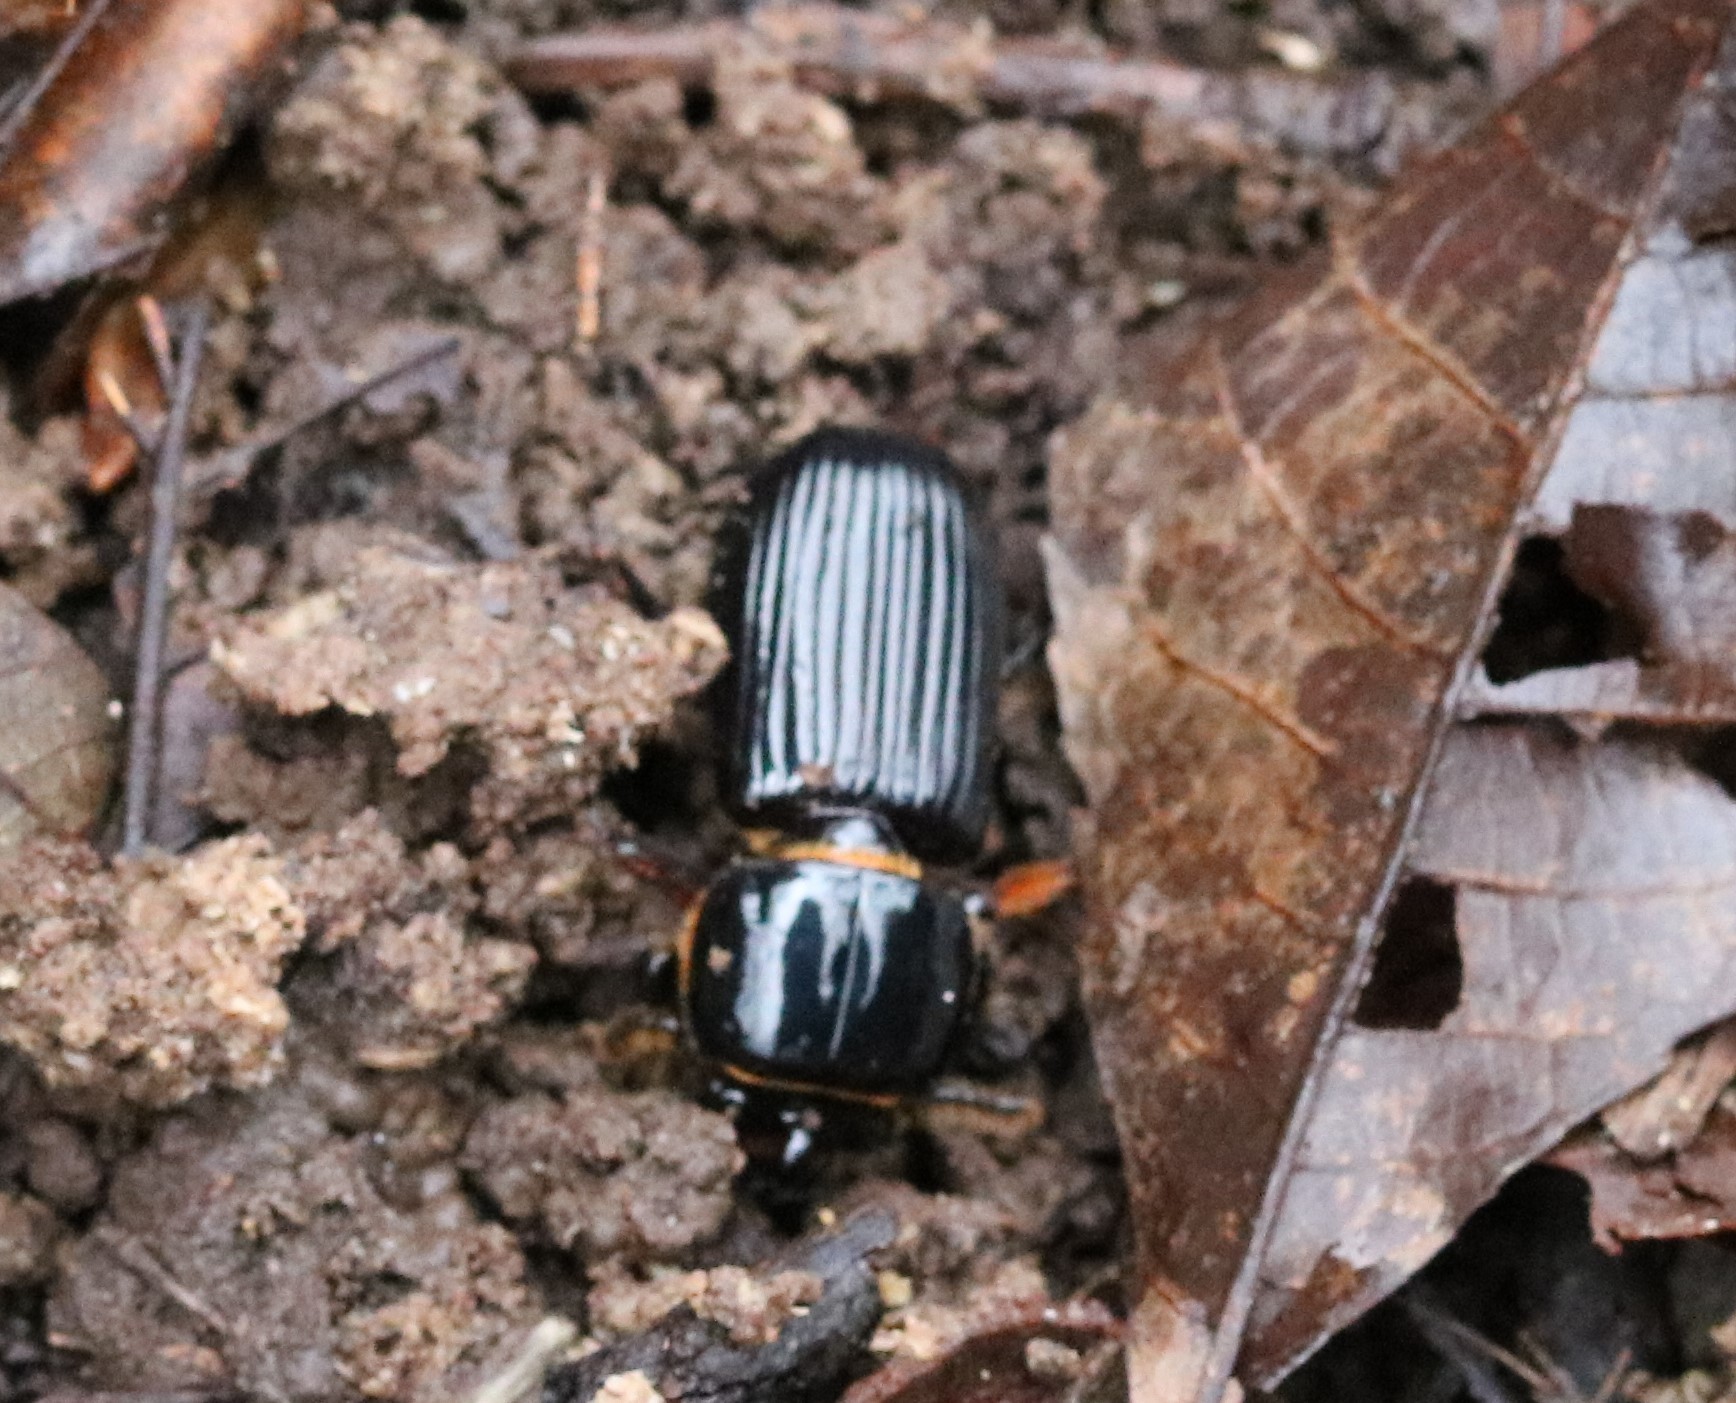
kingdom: Animalia
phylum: Arthropoda
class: Insecta
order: Coleoptera
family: Passalidae
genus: Odontotaenius
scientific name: Odontotaenius disjunctus
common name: Patent leather beetle
